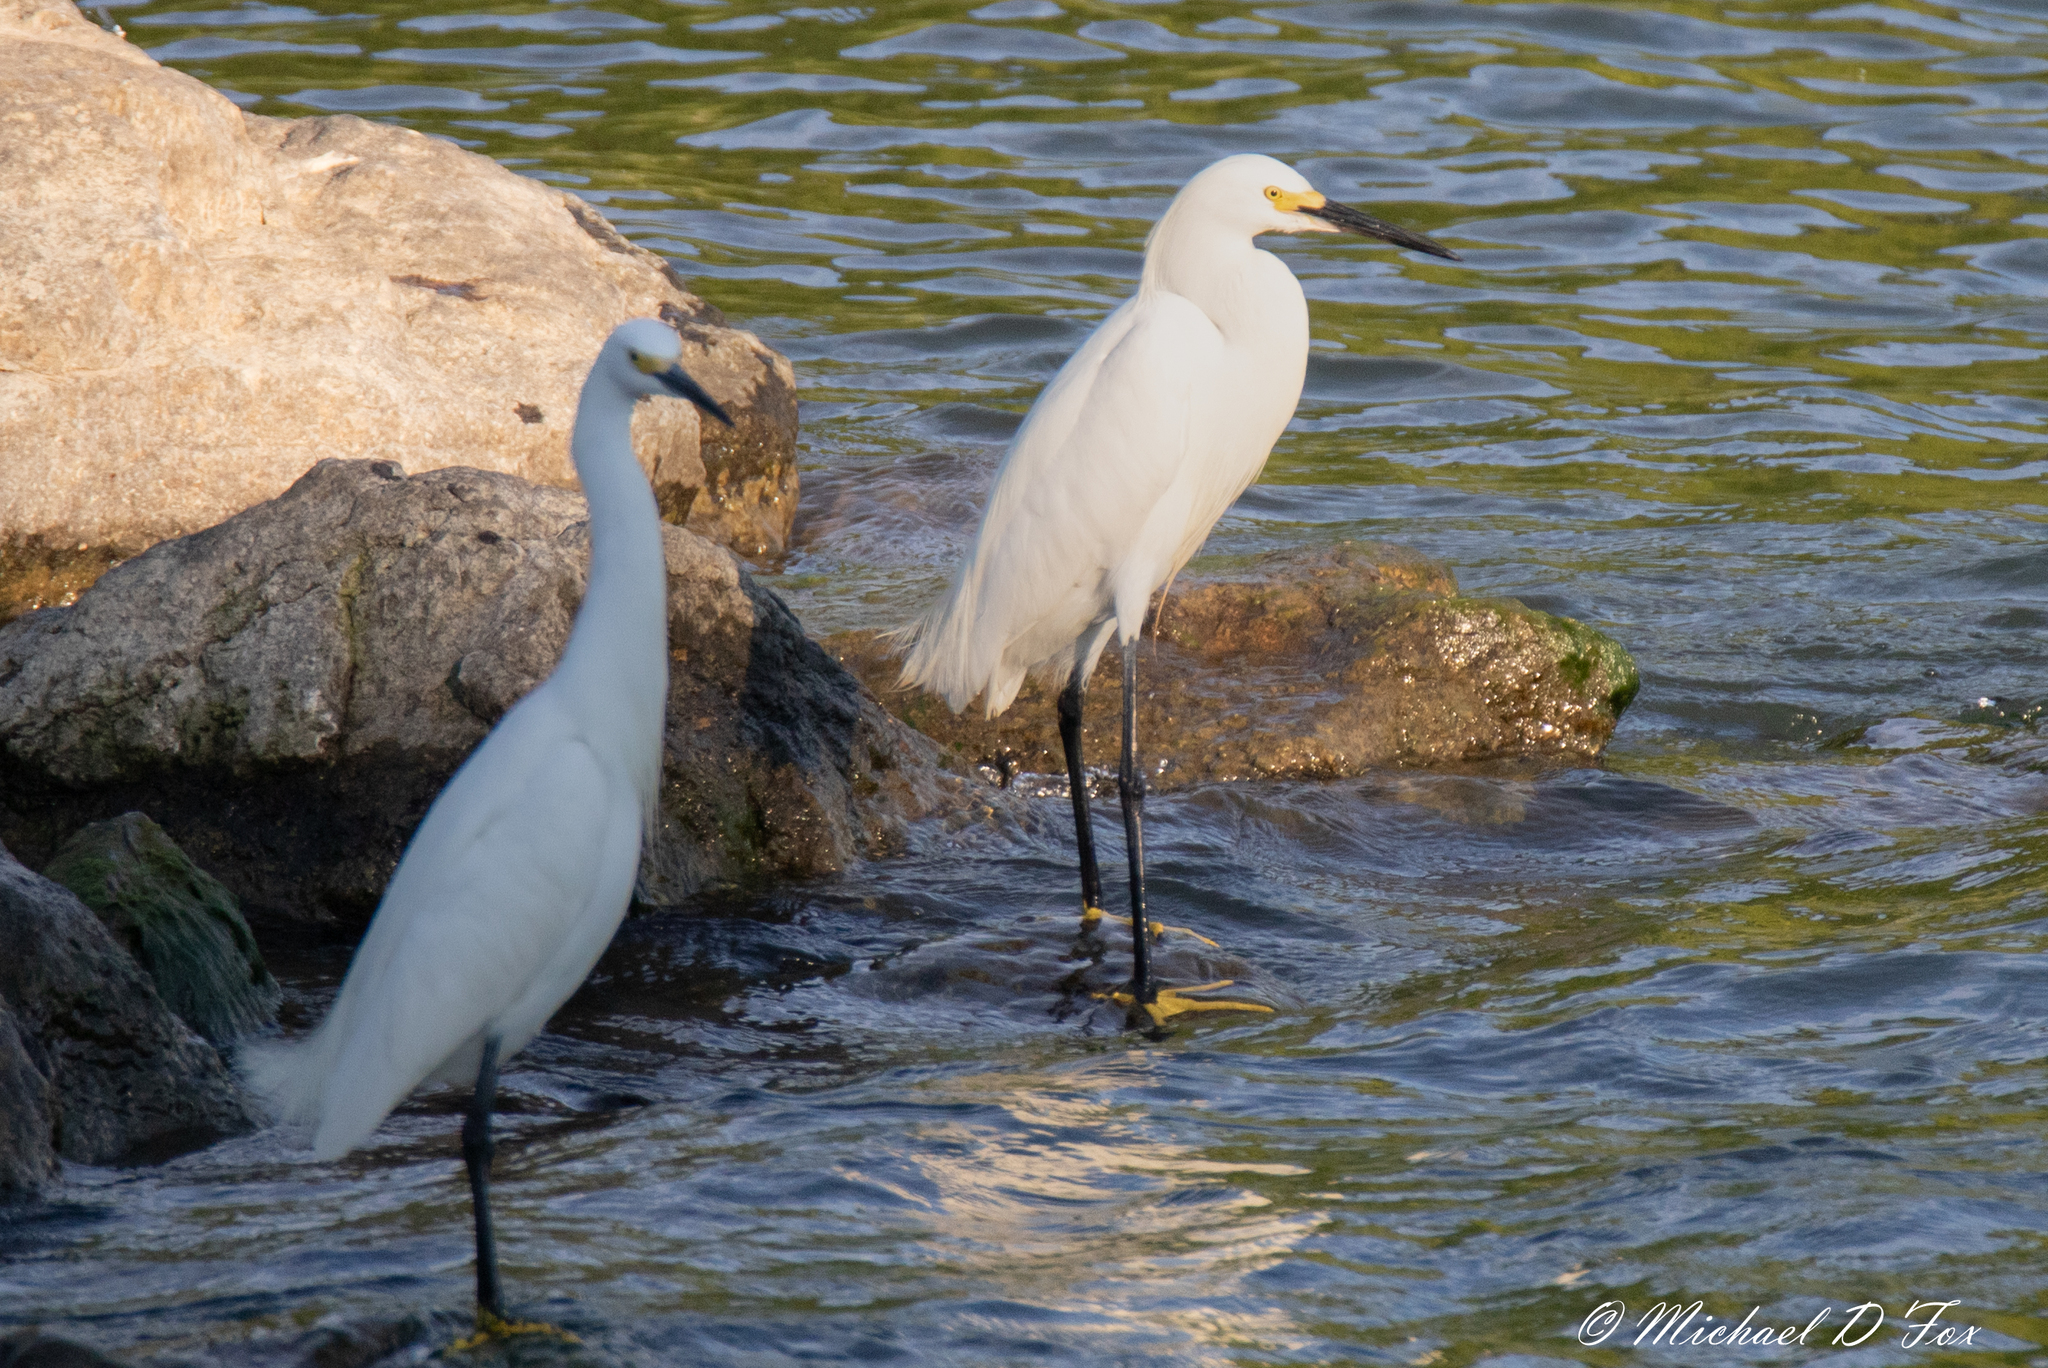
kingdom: Animalia
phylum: Chordata
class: Aves
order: Pelecaniformes
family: Ardeidae
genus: Egretta
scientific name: Egretta thula
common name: Snowy egret
